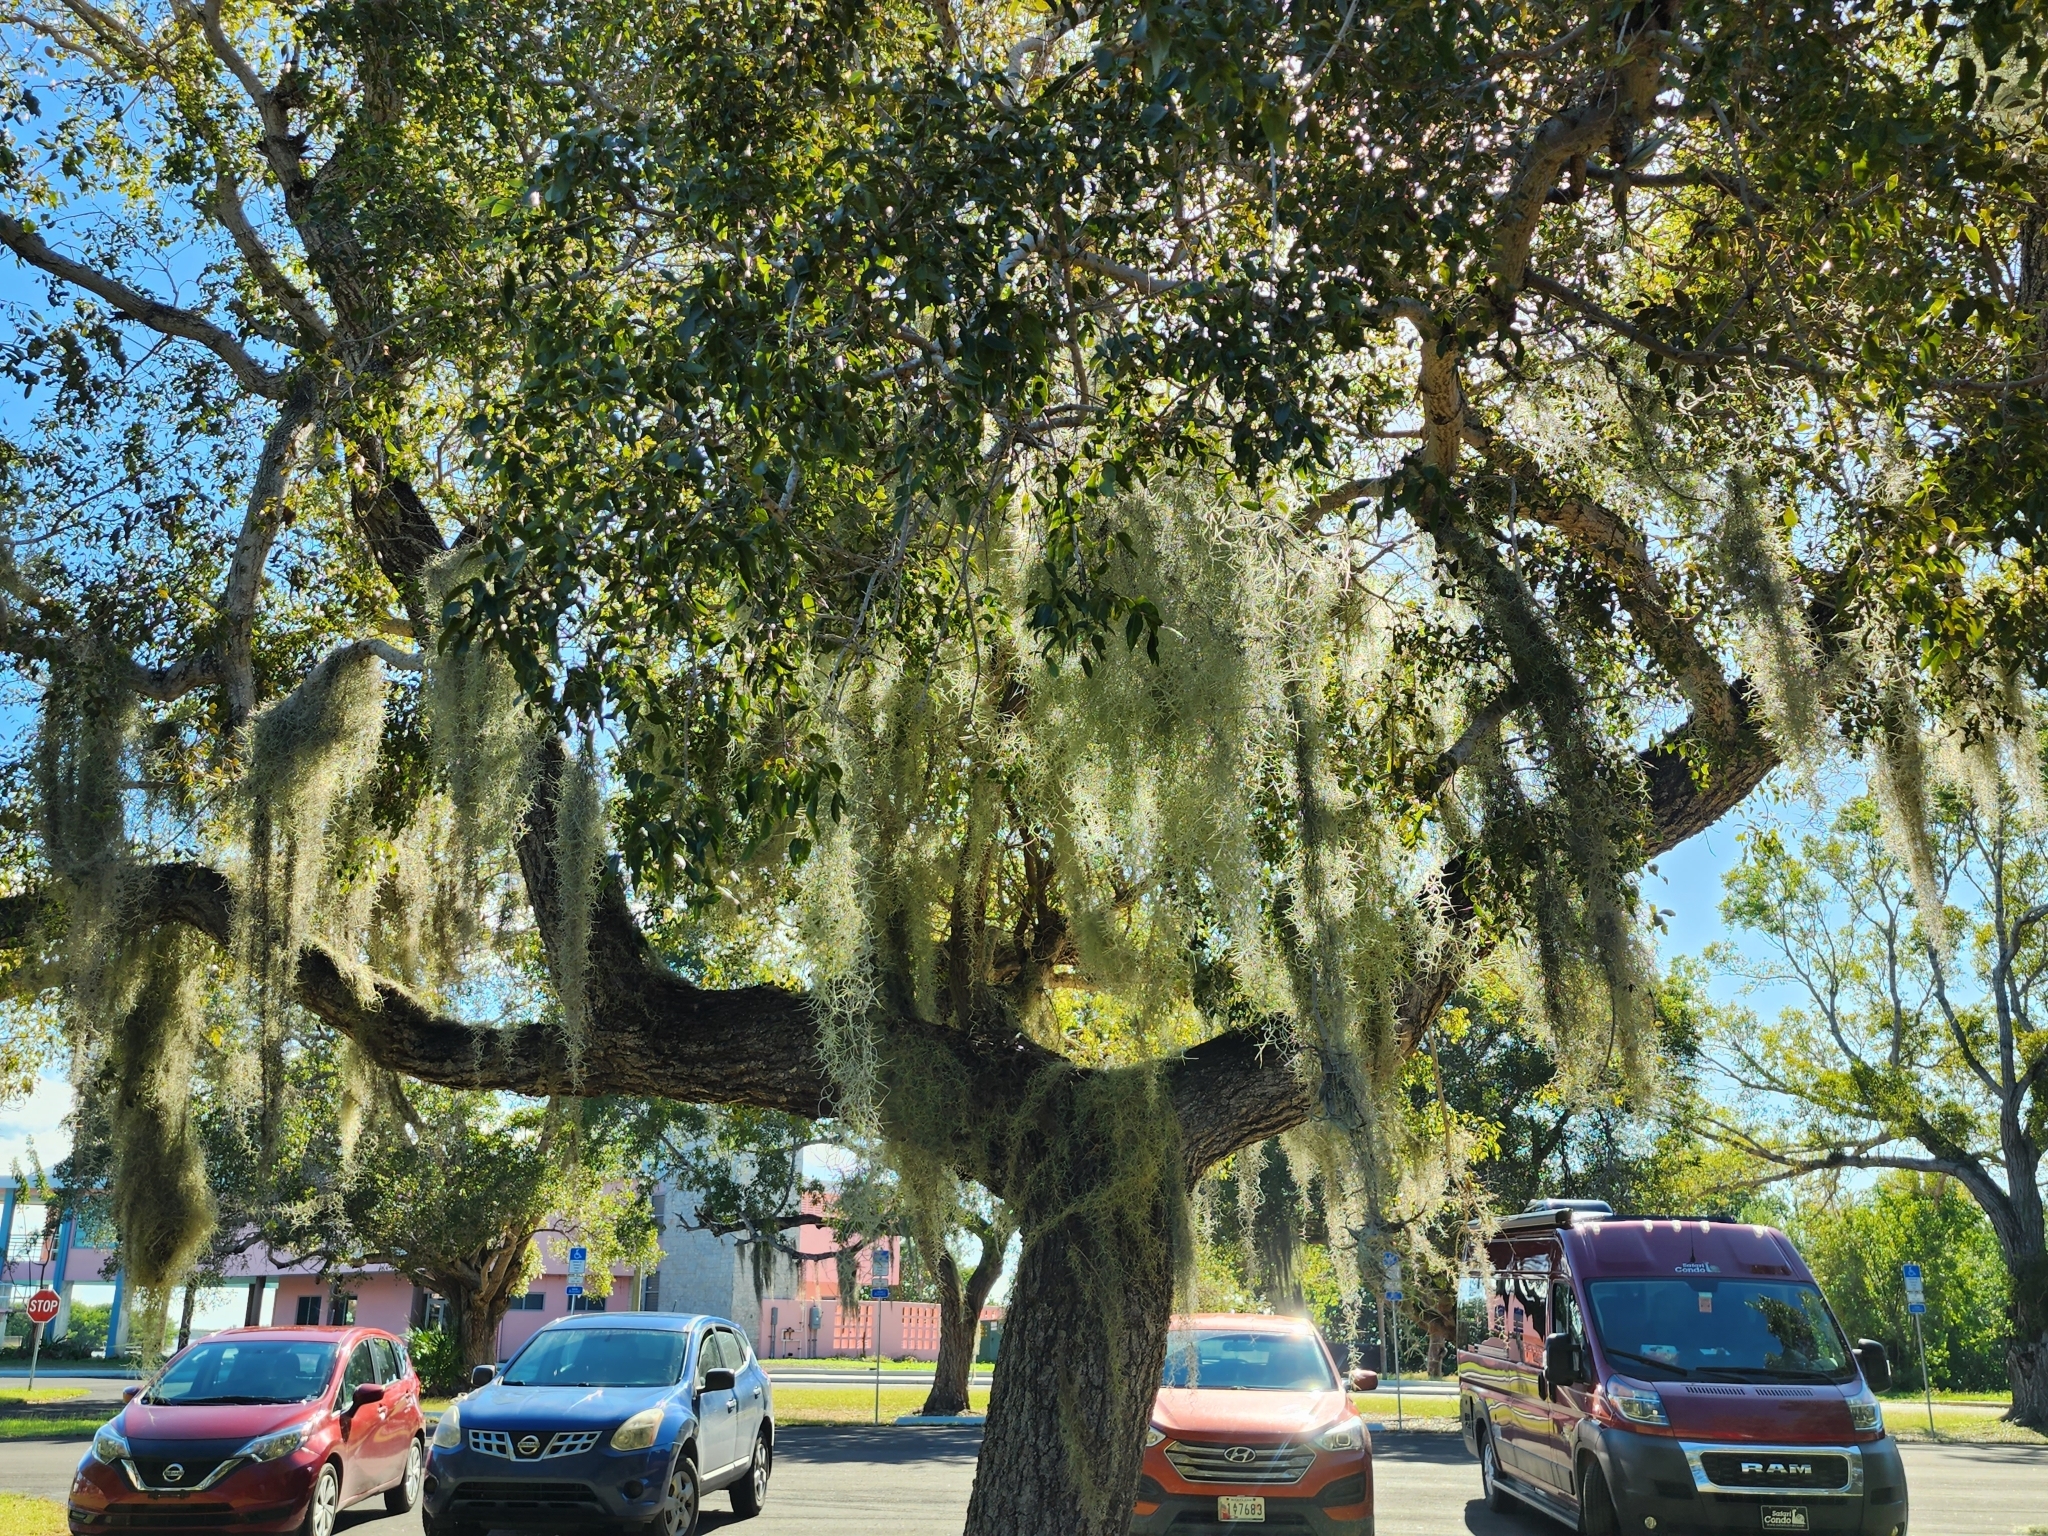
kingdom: Plantae
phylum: Tracheophyta
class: Liliopsida
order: Poales
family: Bromeliaceae
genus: Tillandsia
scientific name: Tillandsia usneoides
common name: Spanish moss
